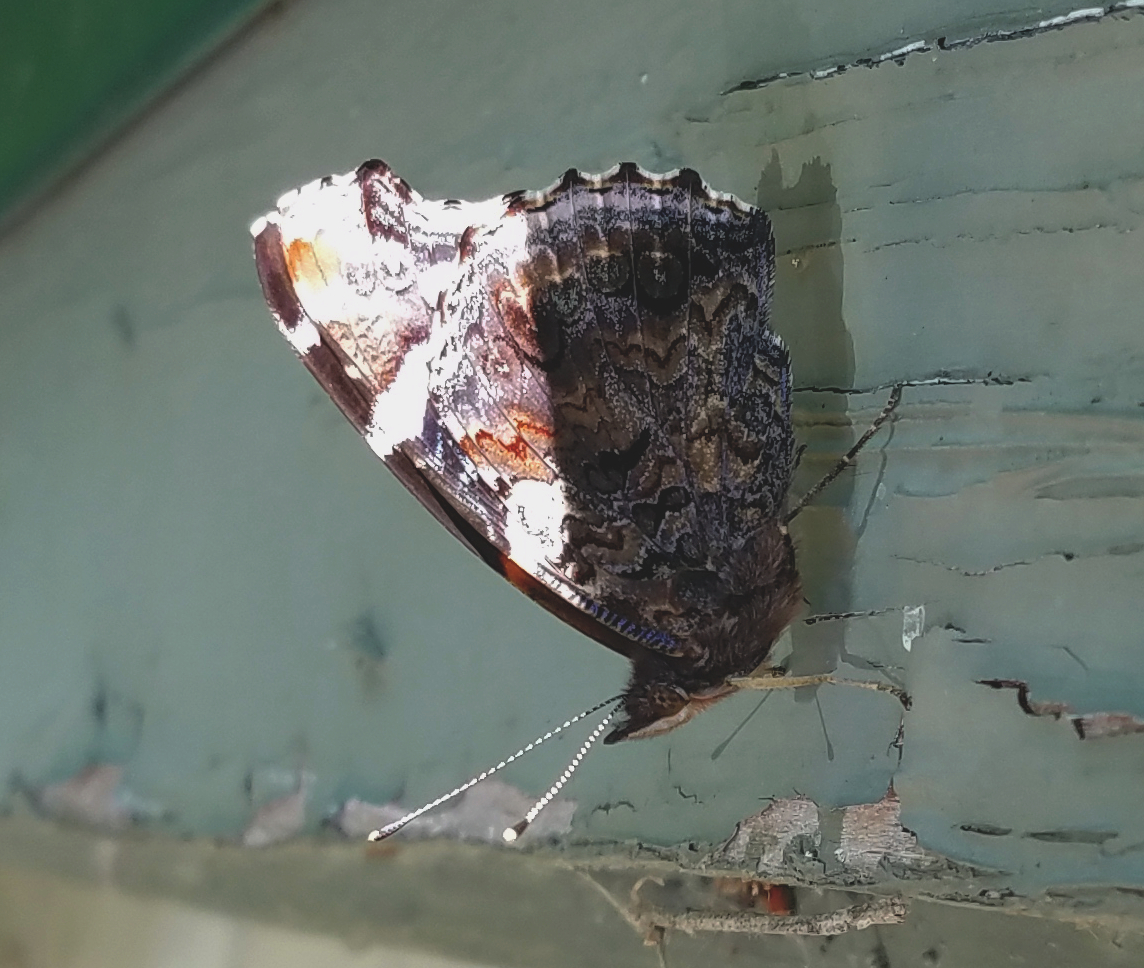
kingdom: Animalia
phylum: Arthropoda
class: Insecta
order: Lepidoptera
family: Nymphalidae
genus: Vanessa
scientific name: Vanessa atalanta
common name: Red admiral
